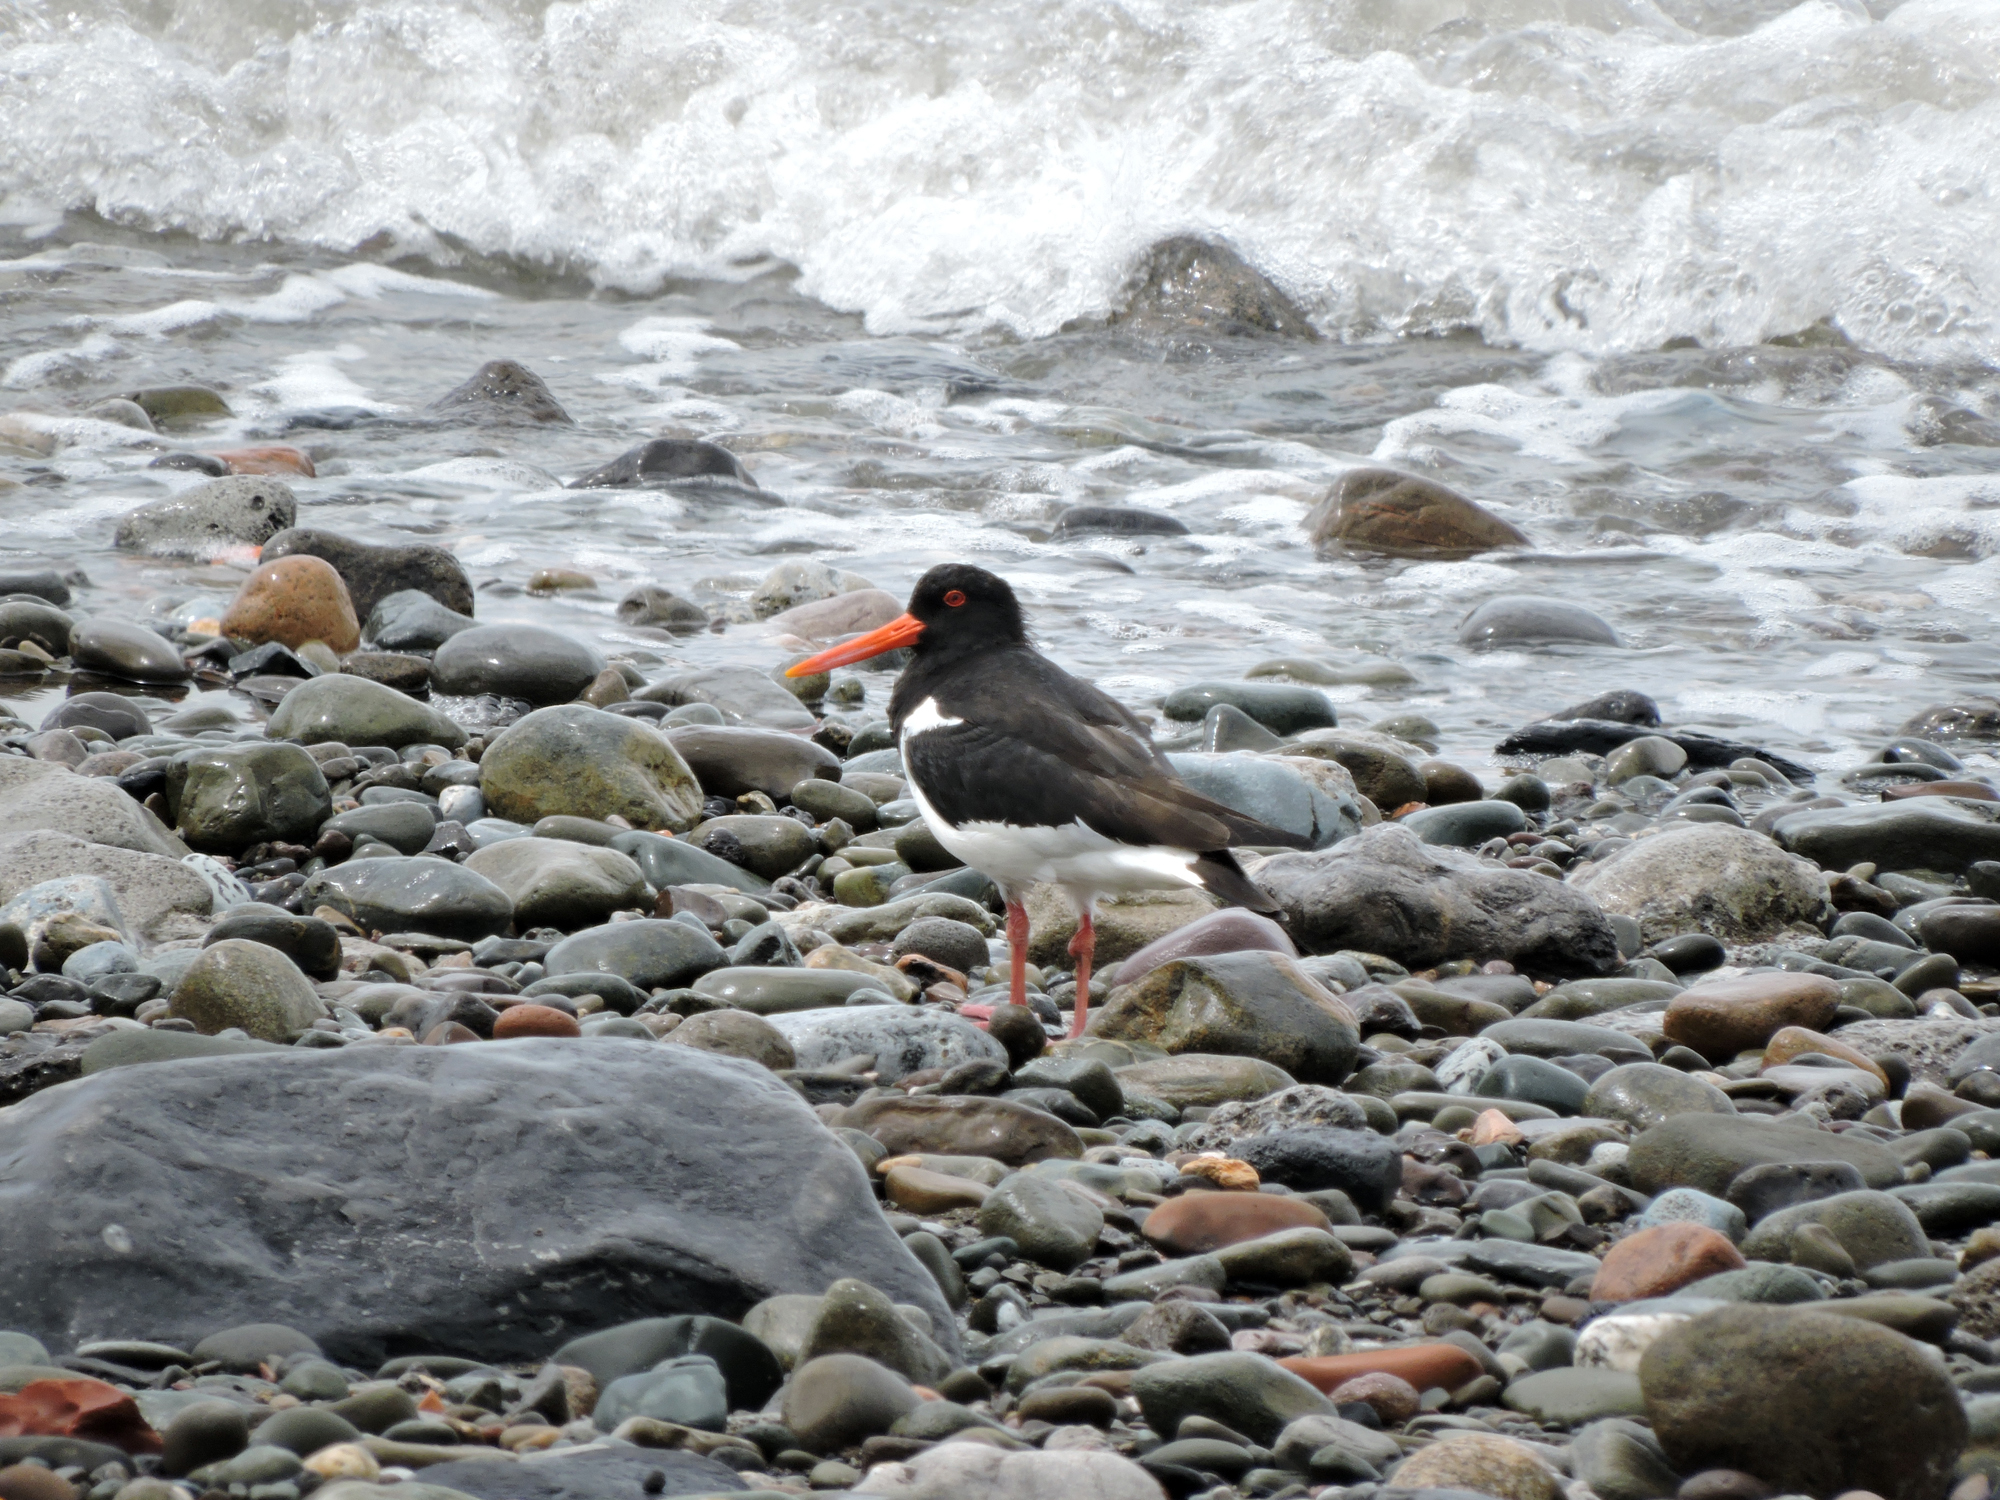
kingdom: Animalia
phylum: Chordata
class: Aves
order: Charadriiformes
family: Haematopodidae
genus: Haematopus
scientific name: Haematopus ostralegus
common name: Eurasian oystercatcher
